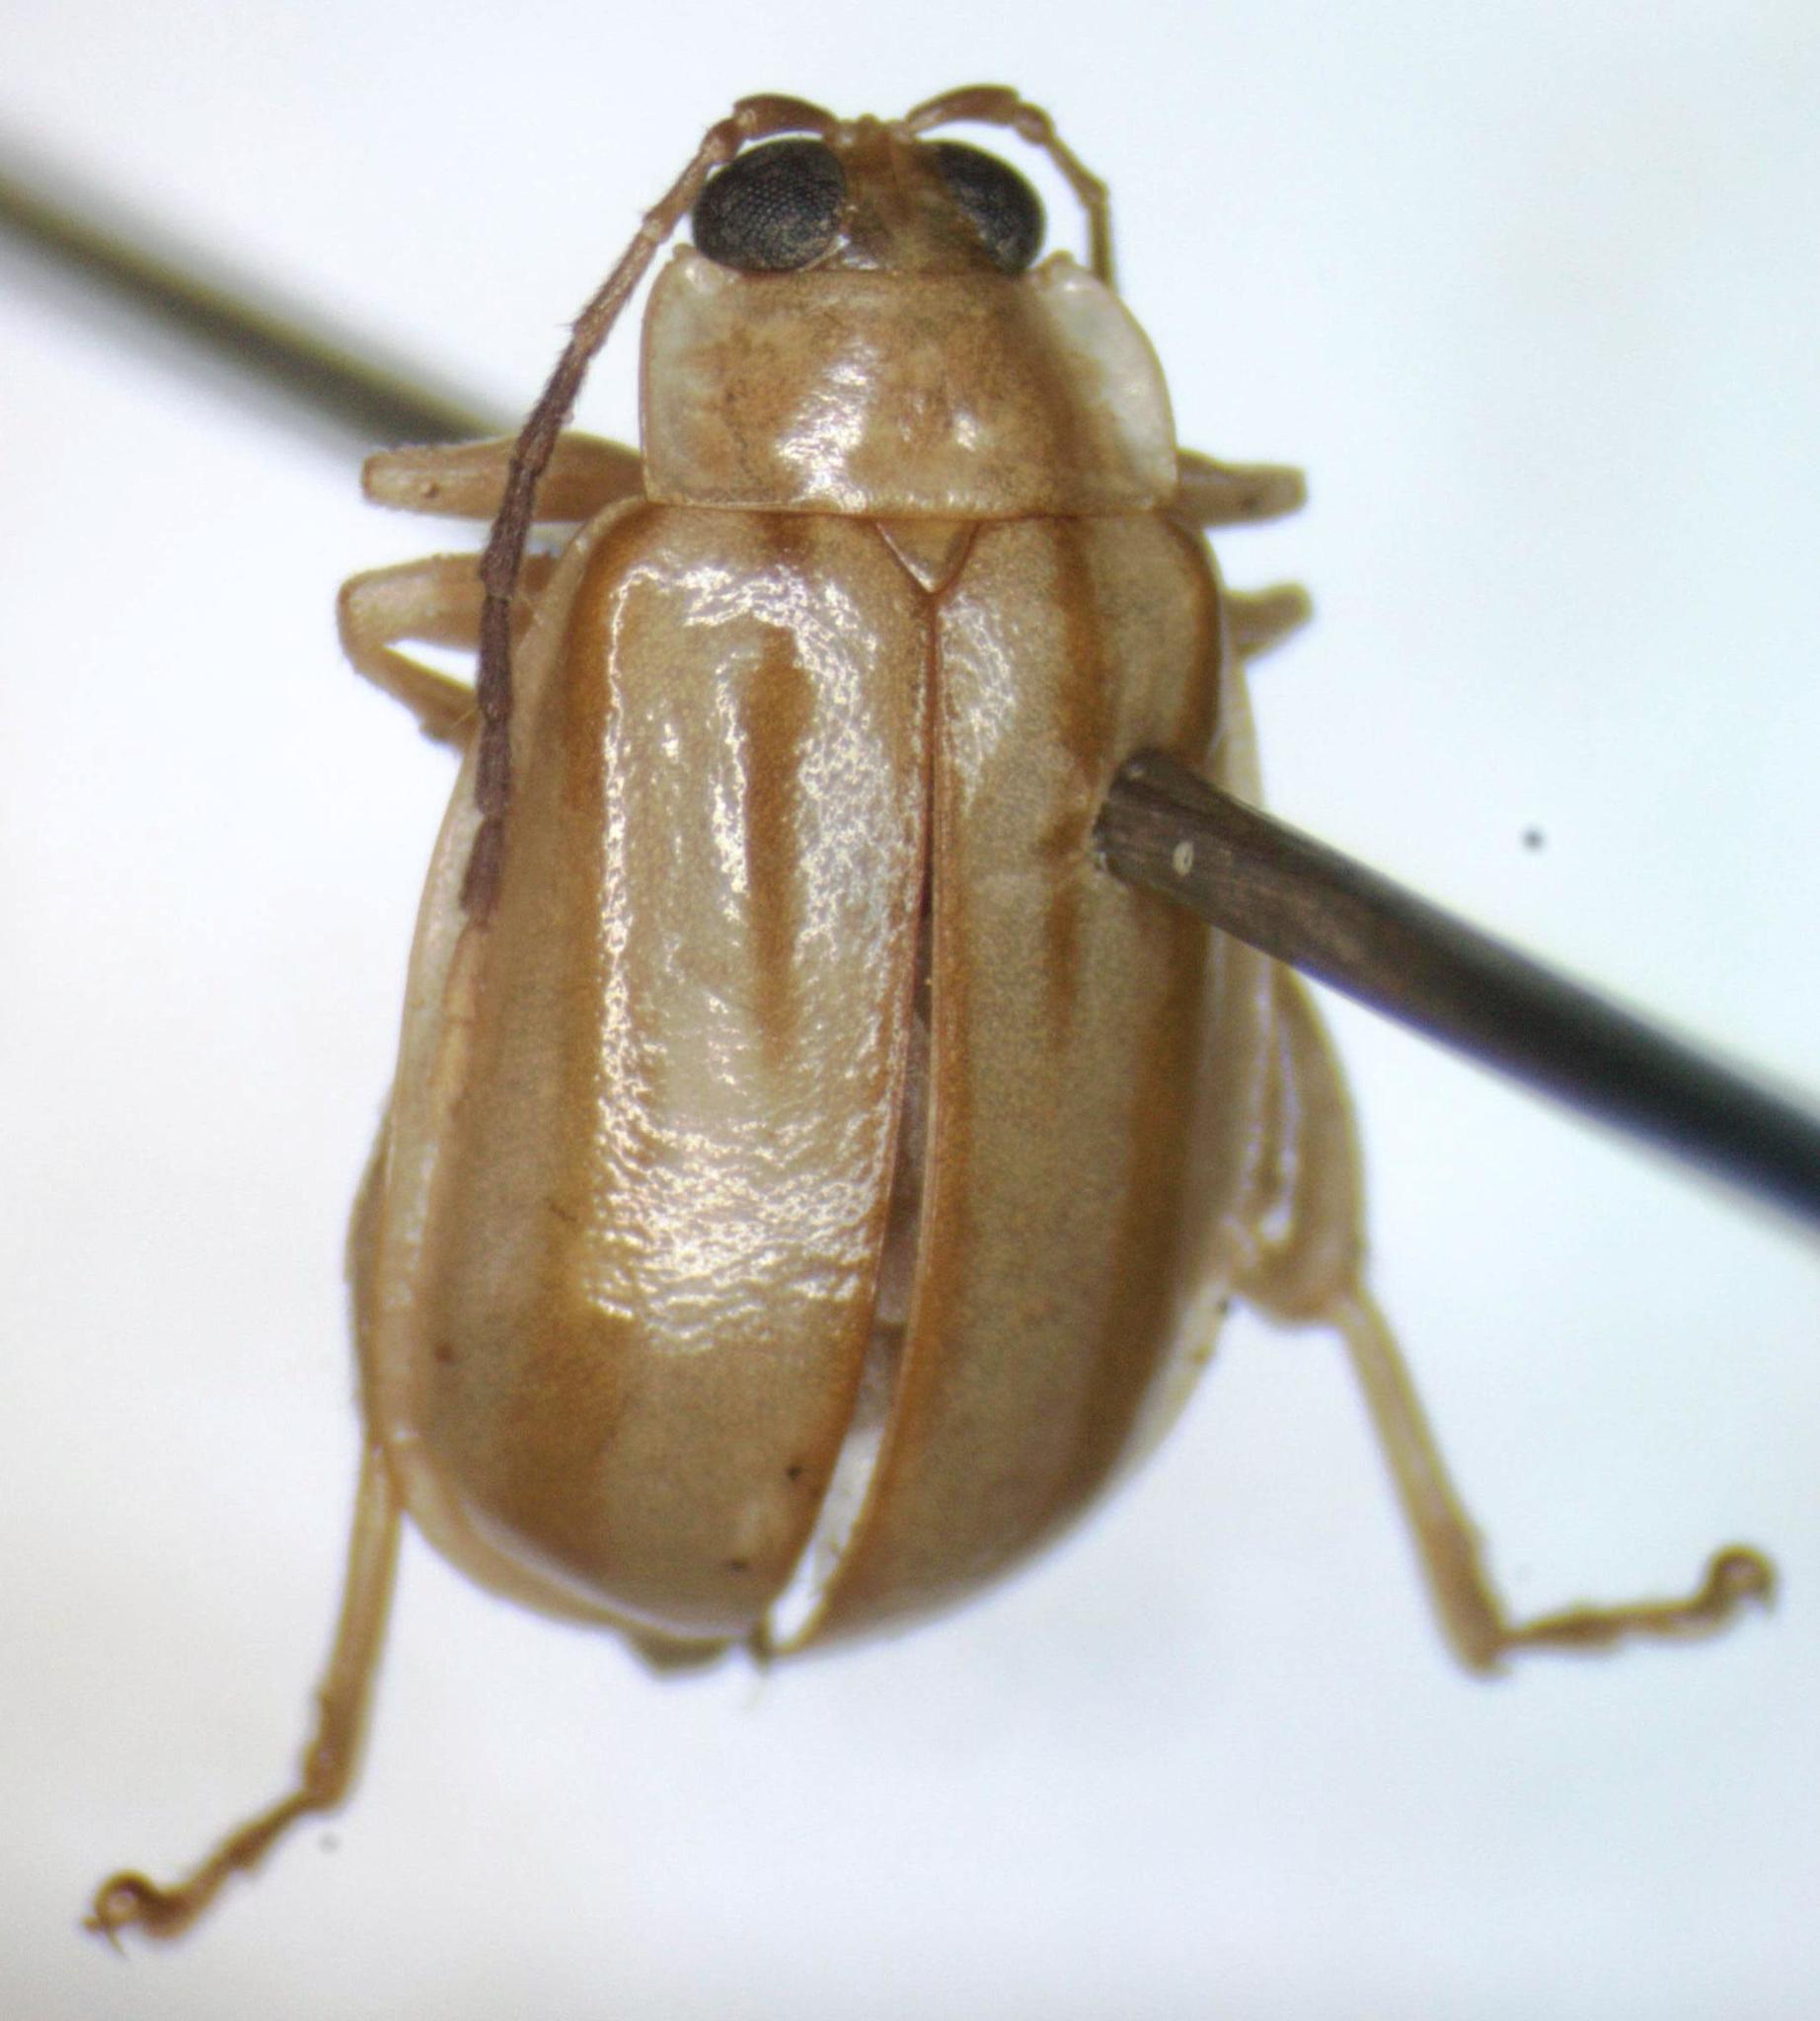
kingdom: Animalia
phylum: Arthropoda
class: Insecta
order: Coleoptera
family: Chrysomelidae
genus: Walterianella
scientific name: Walterianella
